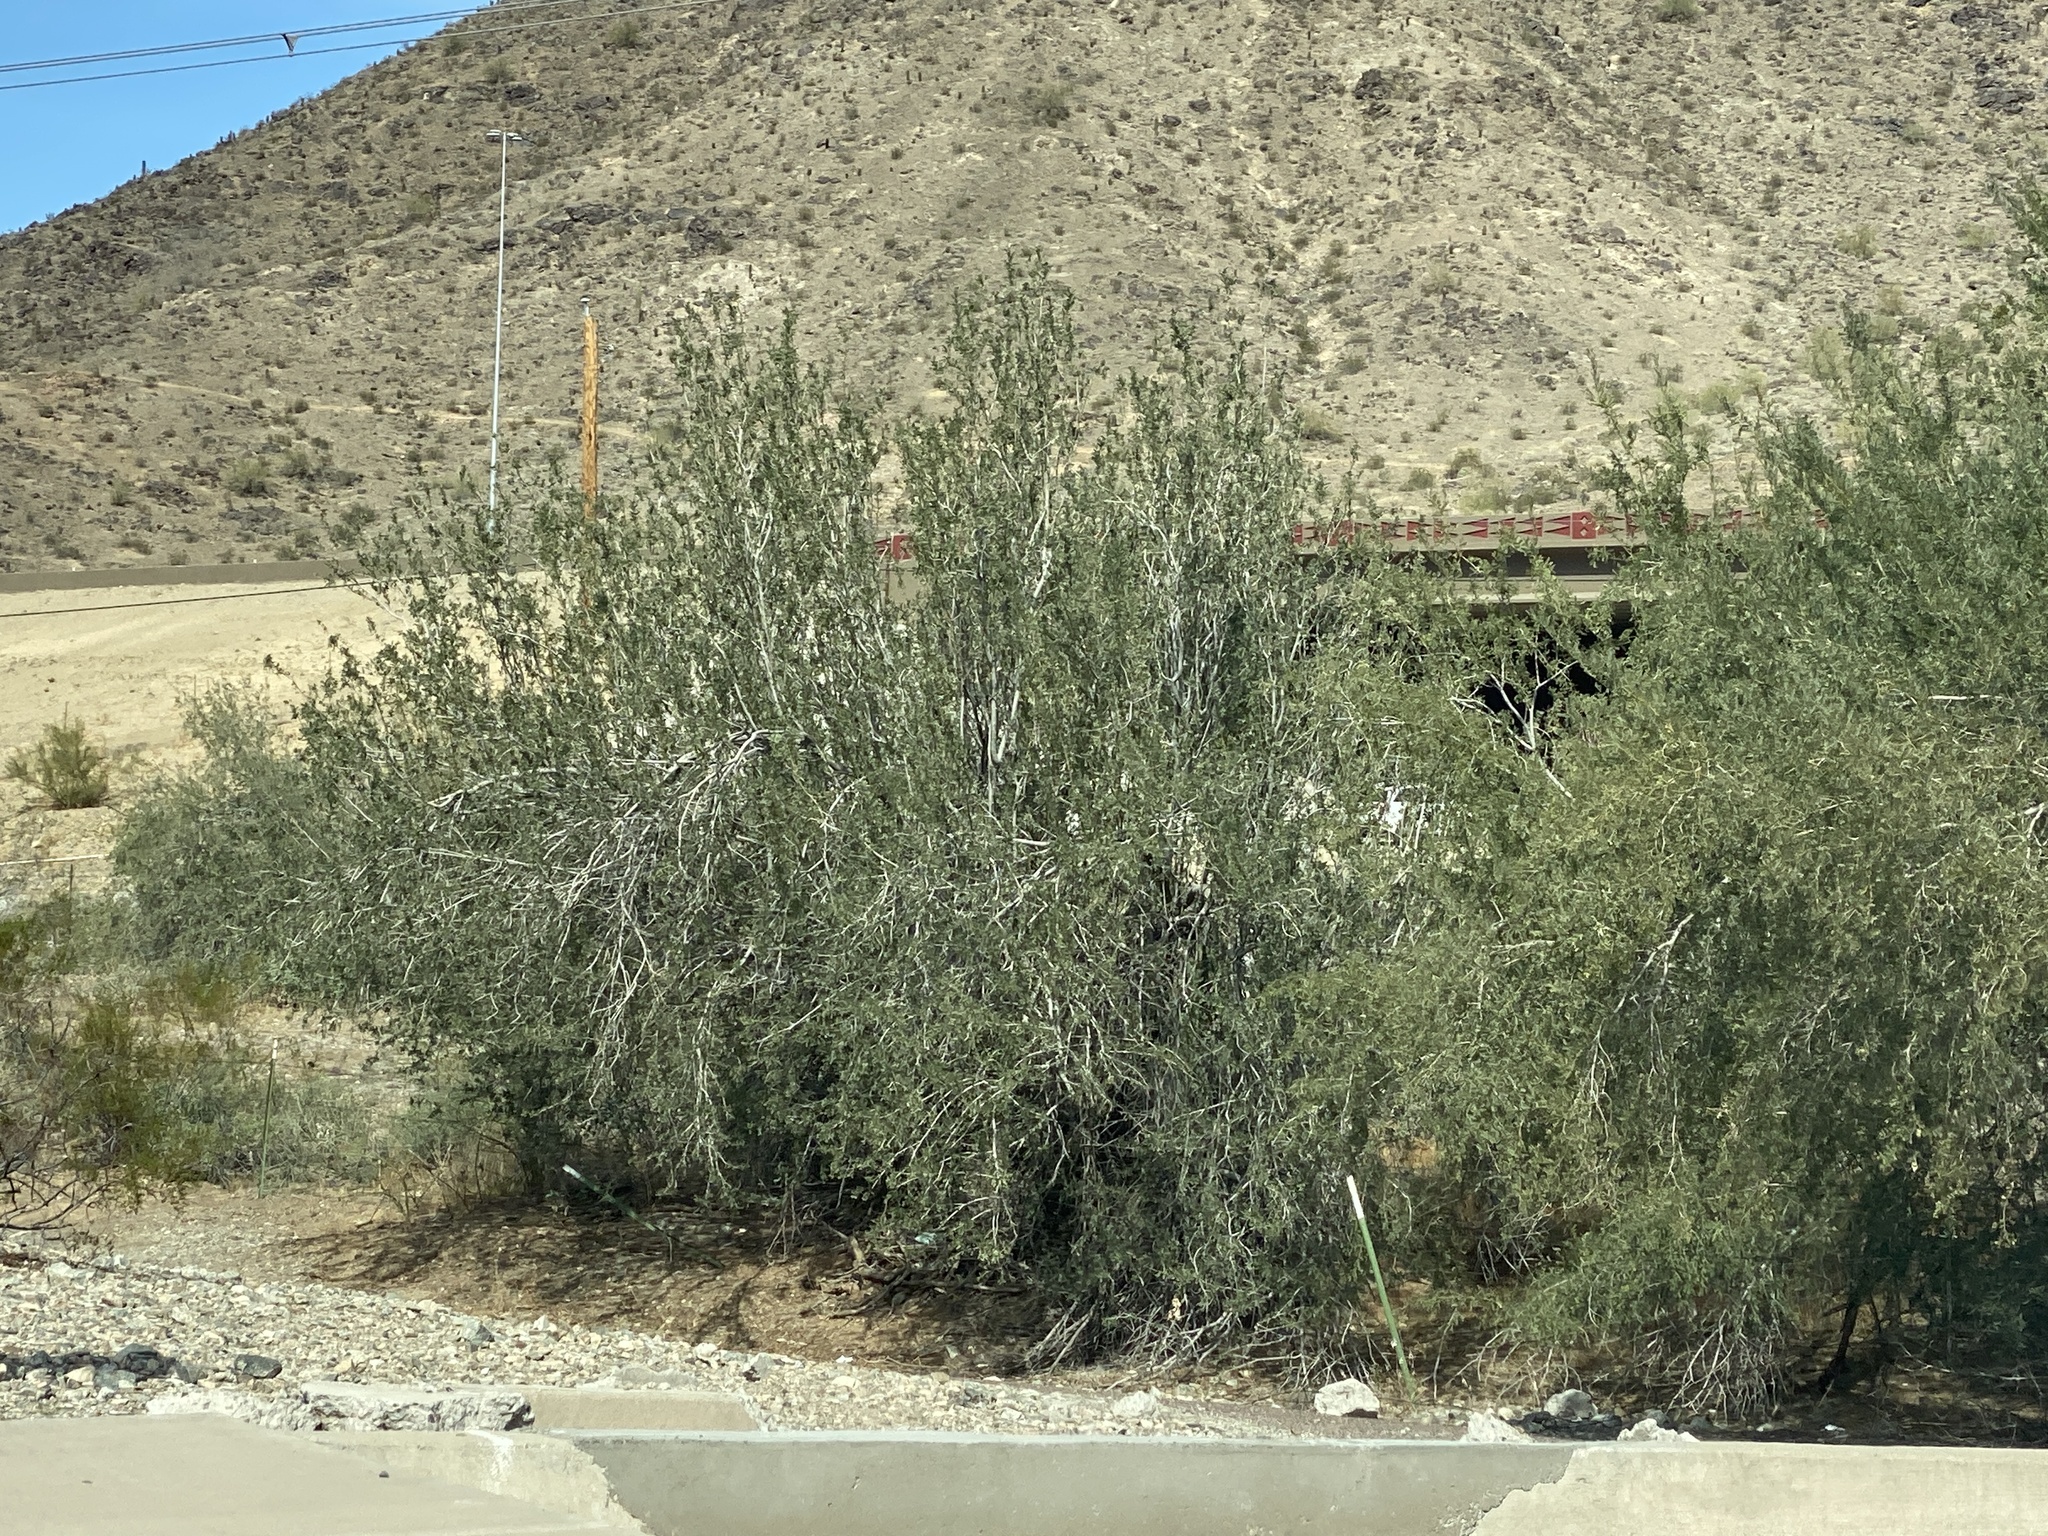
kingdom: Plantae
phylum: Tracheophyta
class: Magnoliopsida
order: Fabales
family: Fabaceae
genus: Olneya
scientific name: Olneya tesota
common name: Desert ironwood
